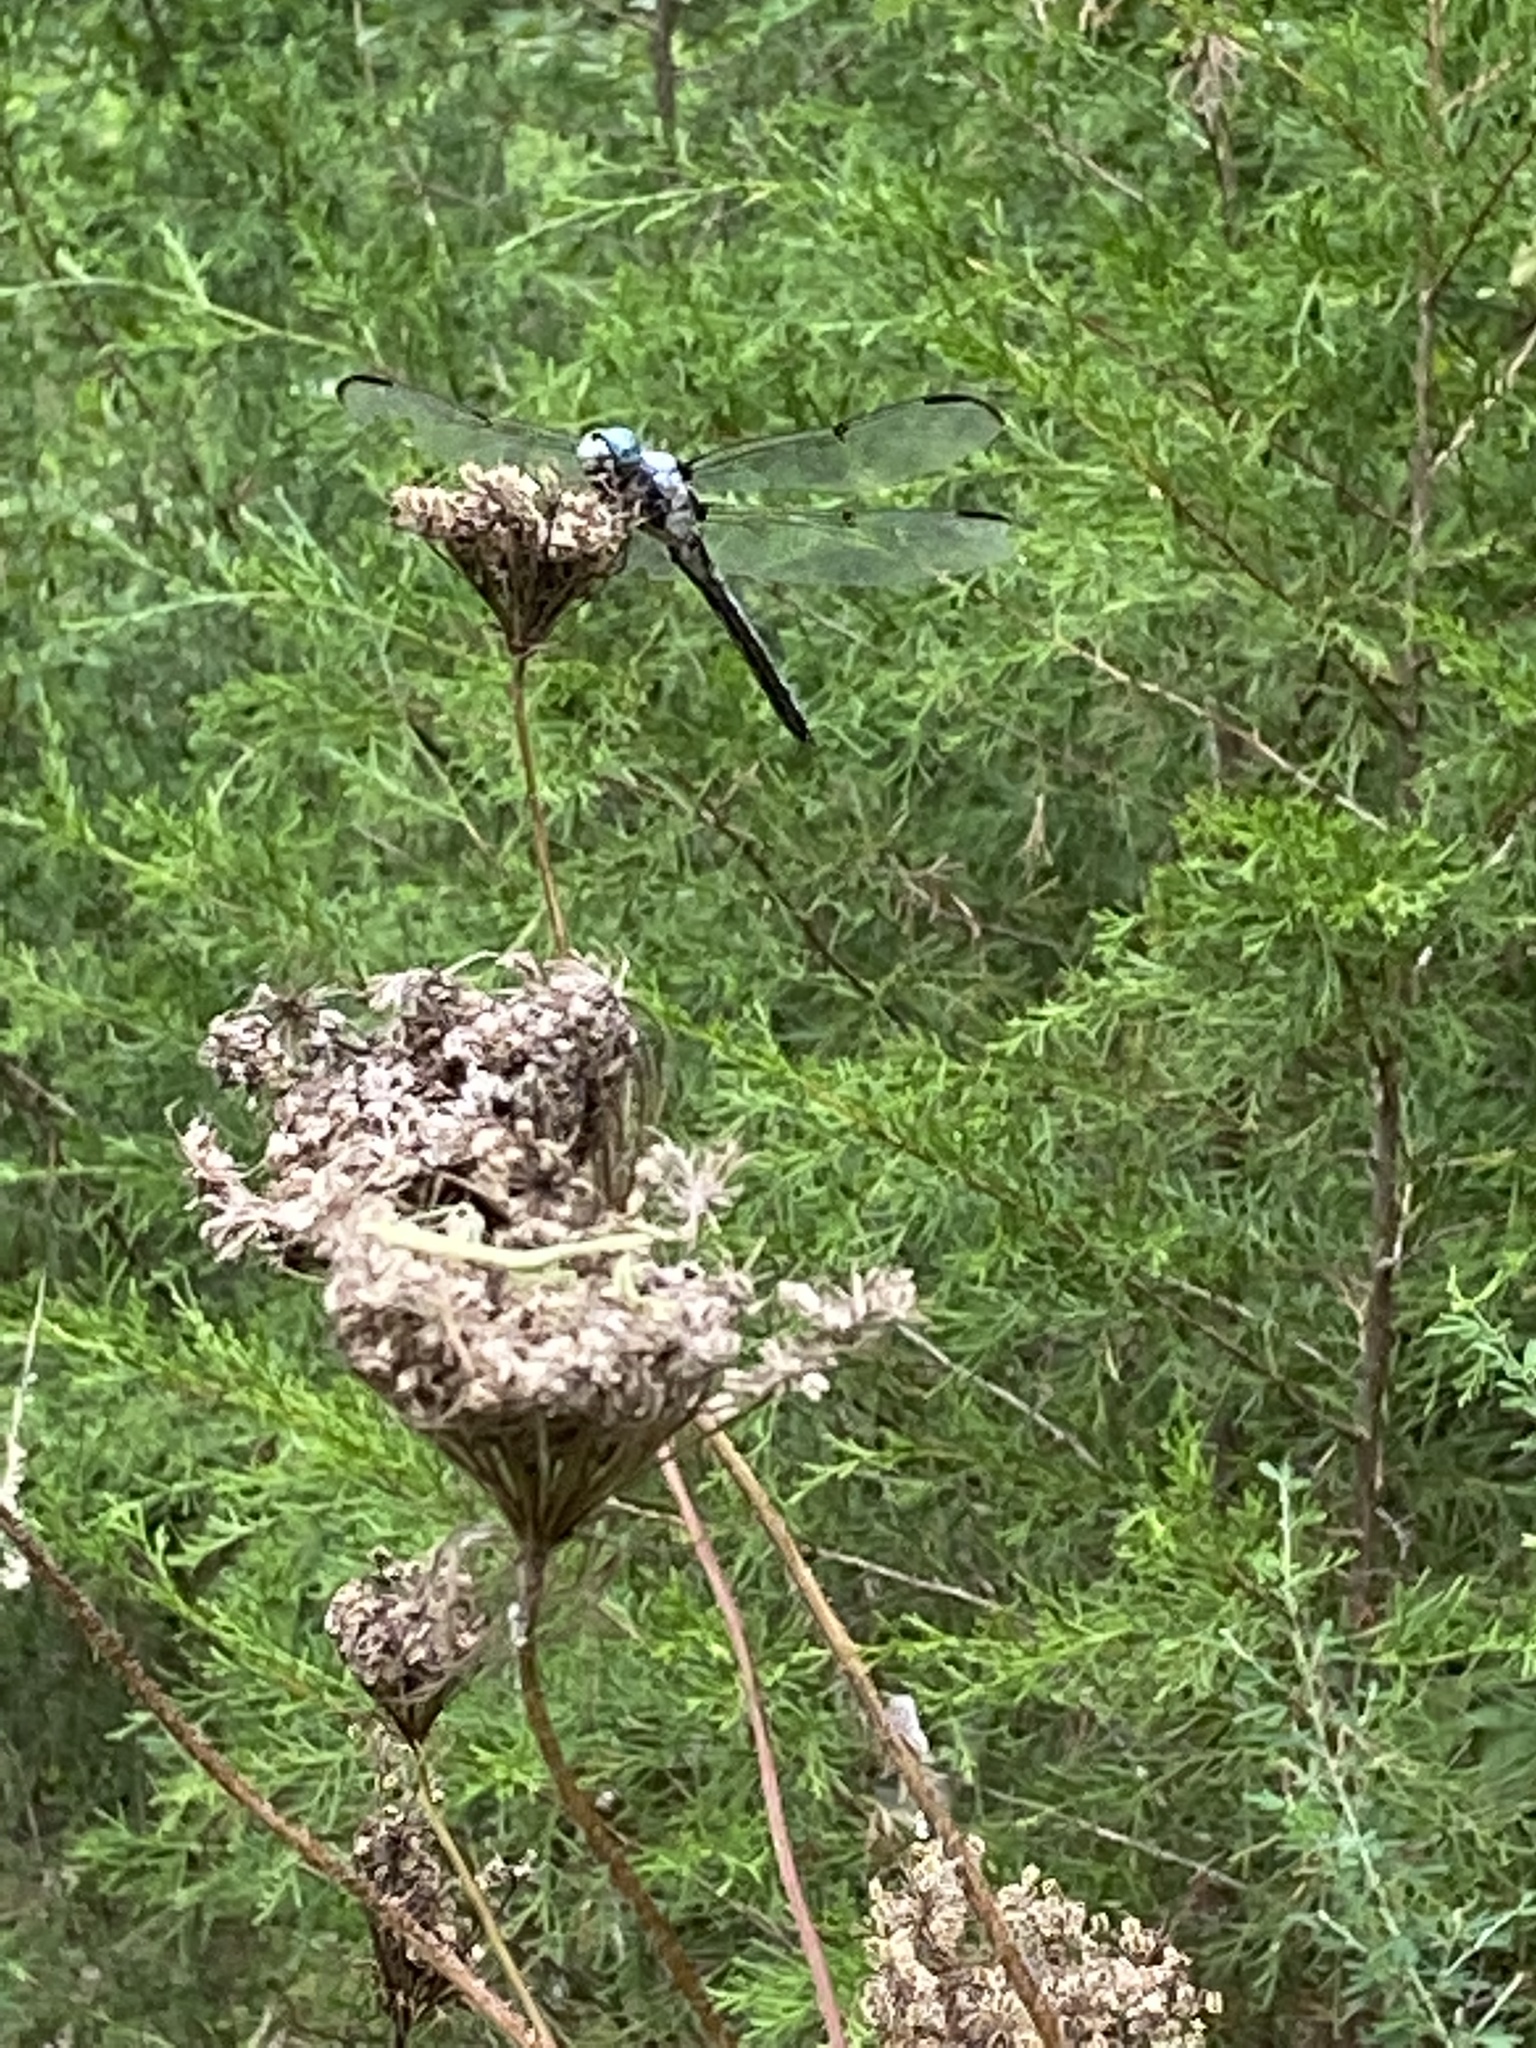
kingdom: Animalia
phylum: Arthropoda
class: Insecta
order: Odonata
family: Libellulidae
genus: Libellula
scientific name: Libellula vibrans
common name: Great blue skimmer
